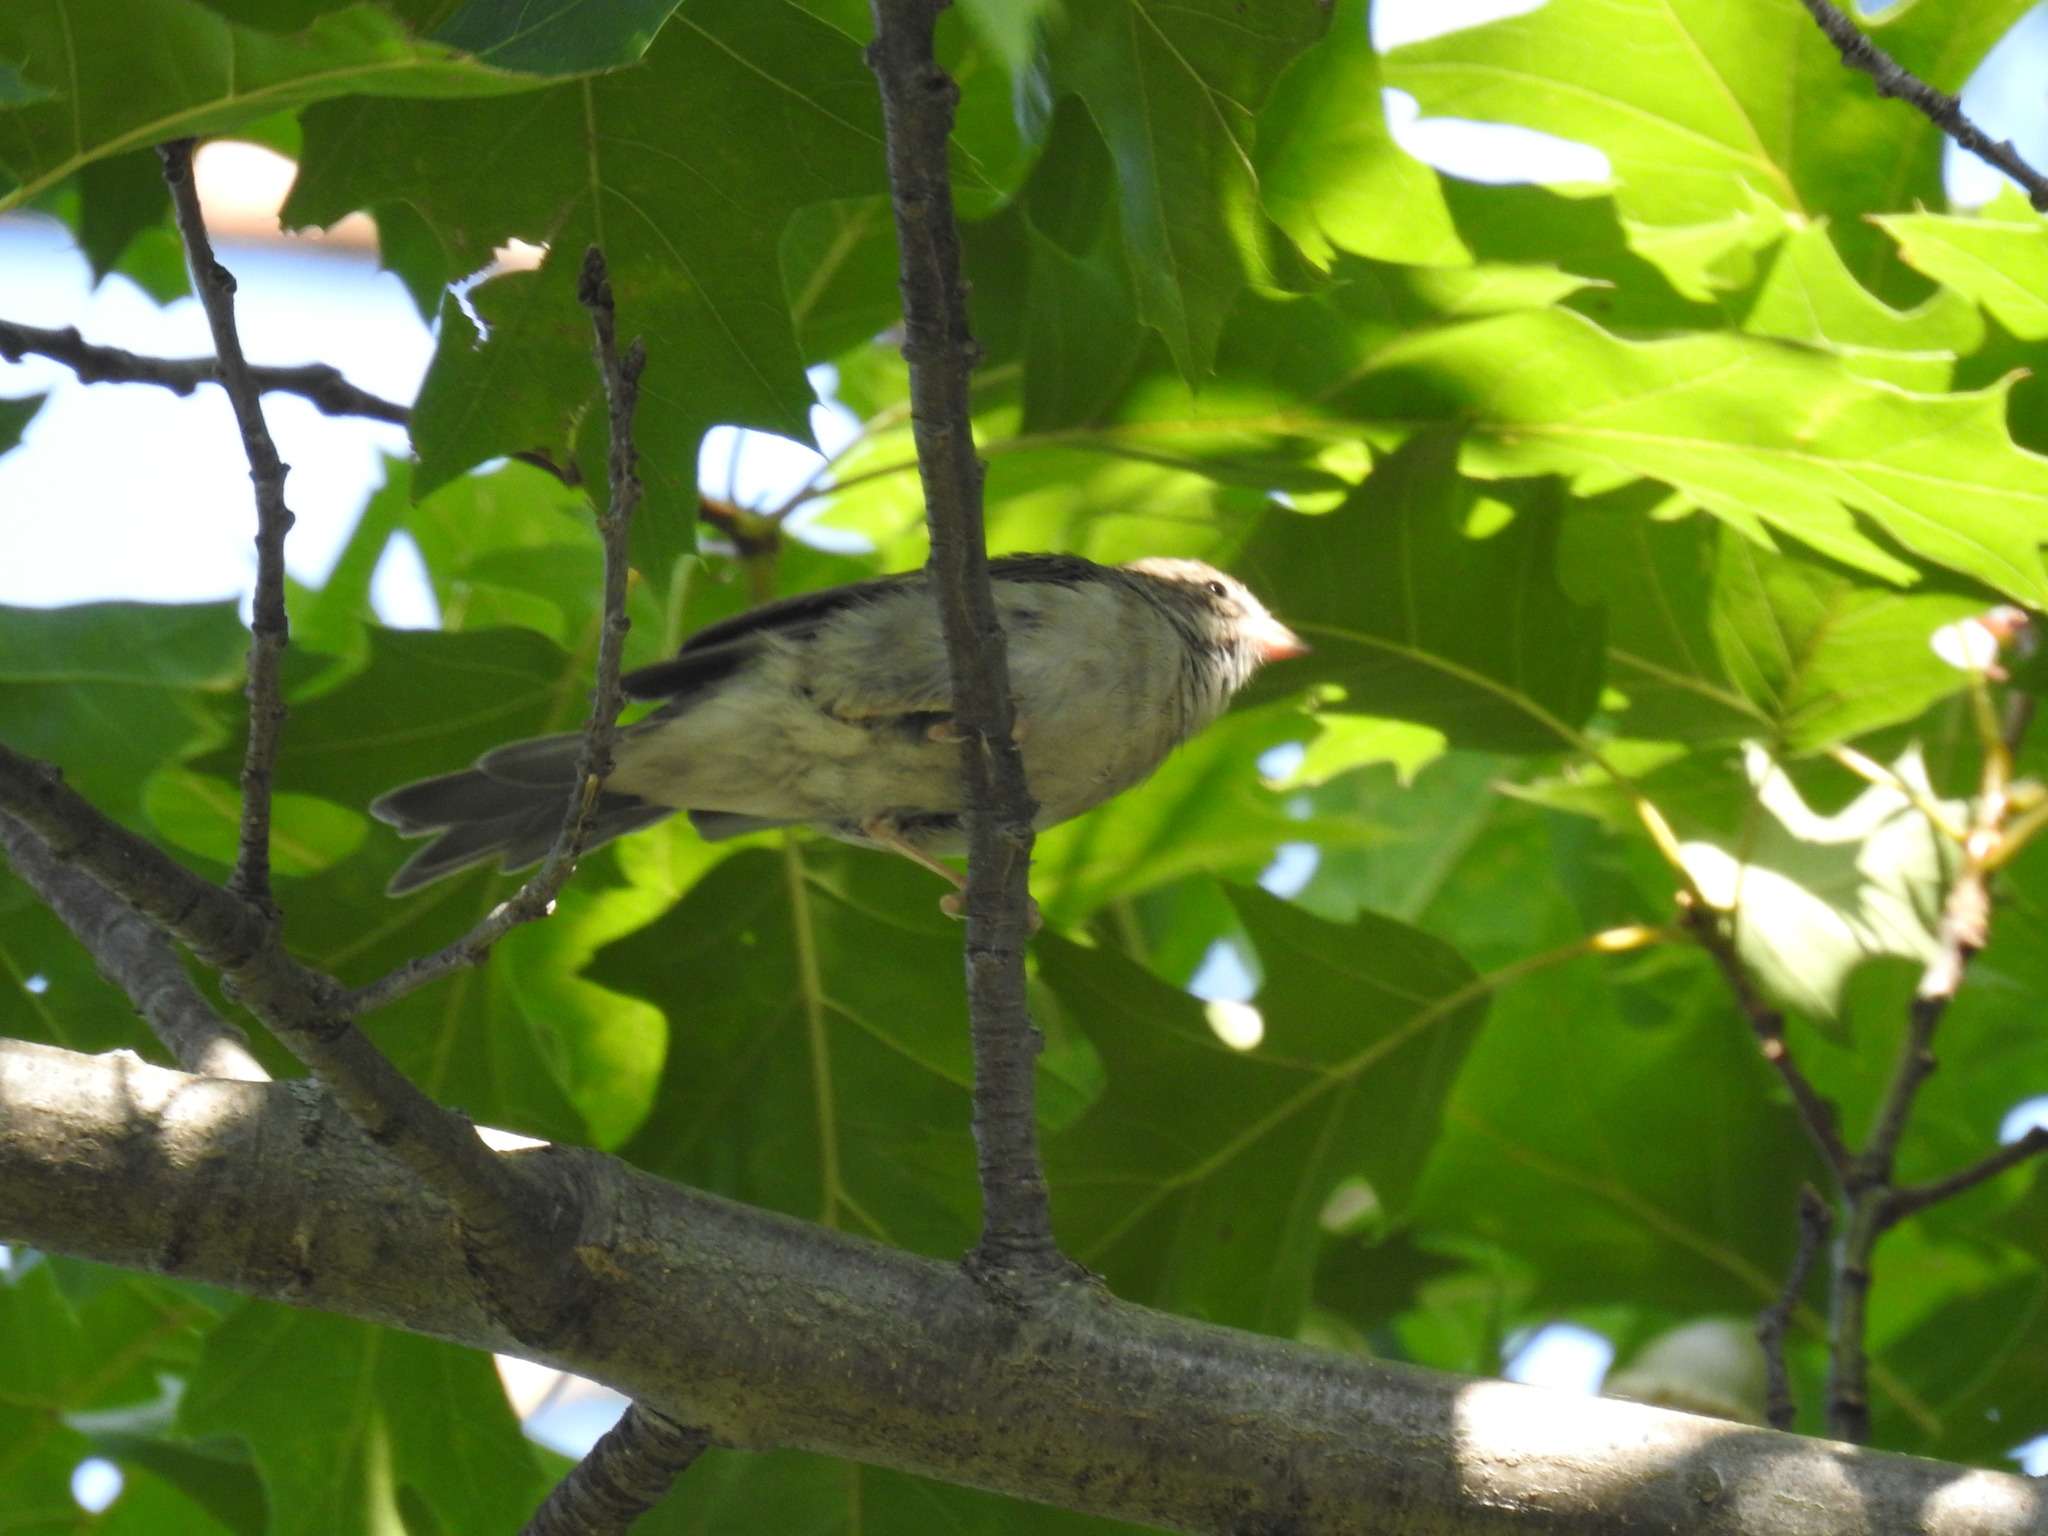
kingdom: Animalia
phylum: Chordata
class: Aves
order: Passeriformes
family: Passerellidae
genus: Spizella
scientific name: Spizella passerina
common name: Chipping sparrow
